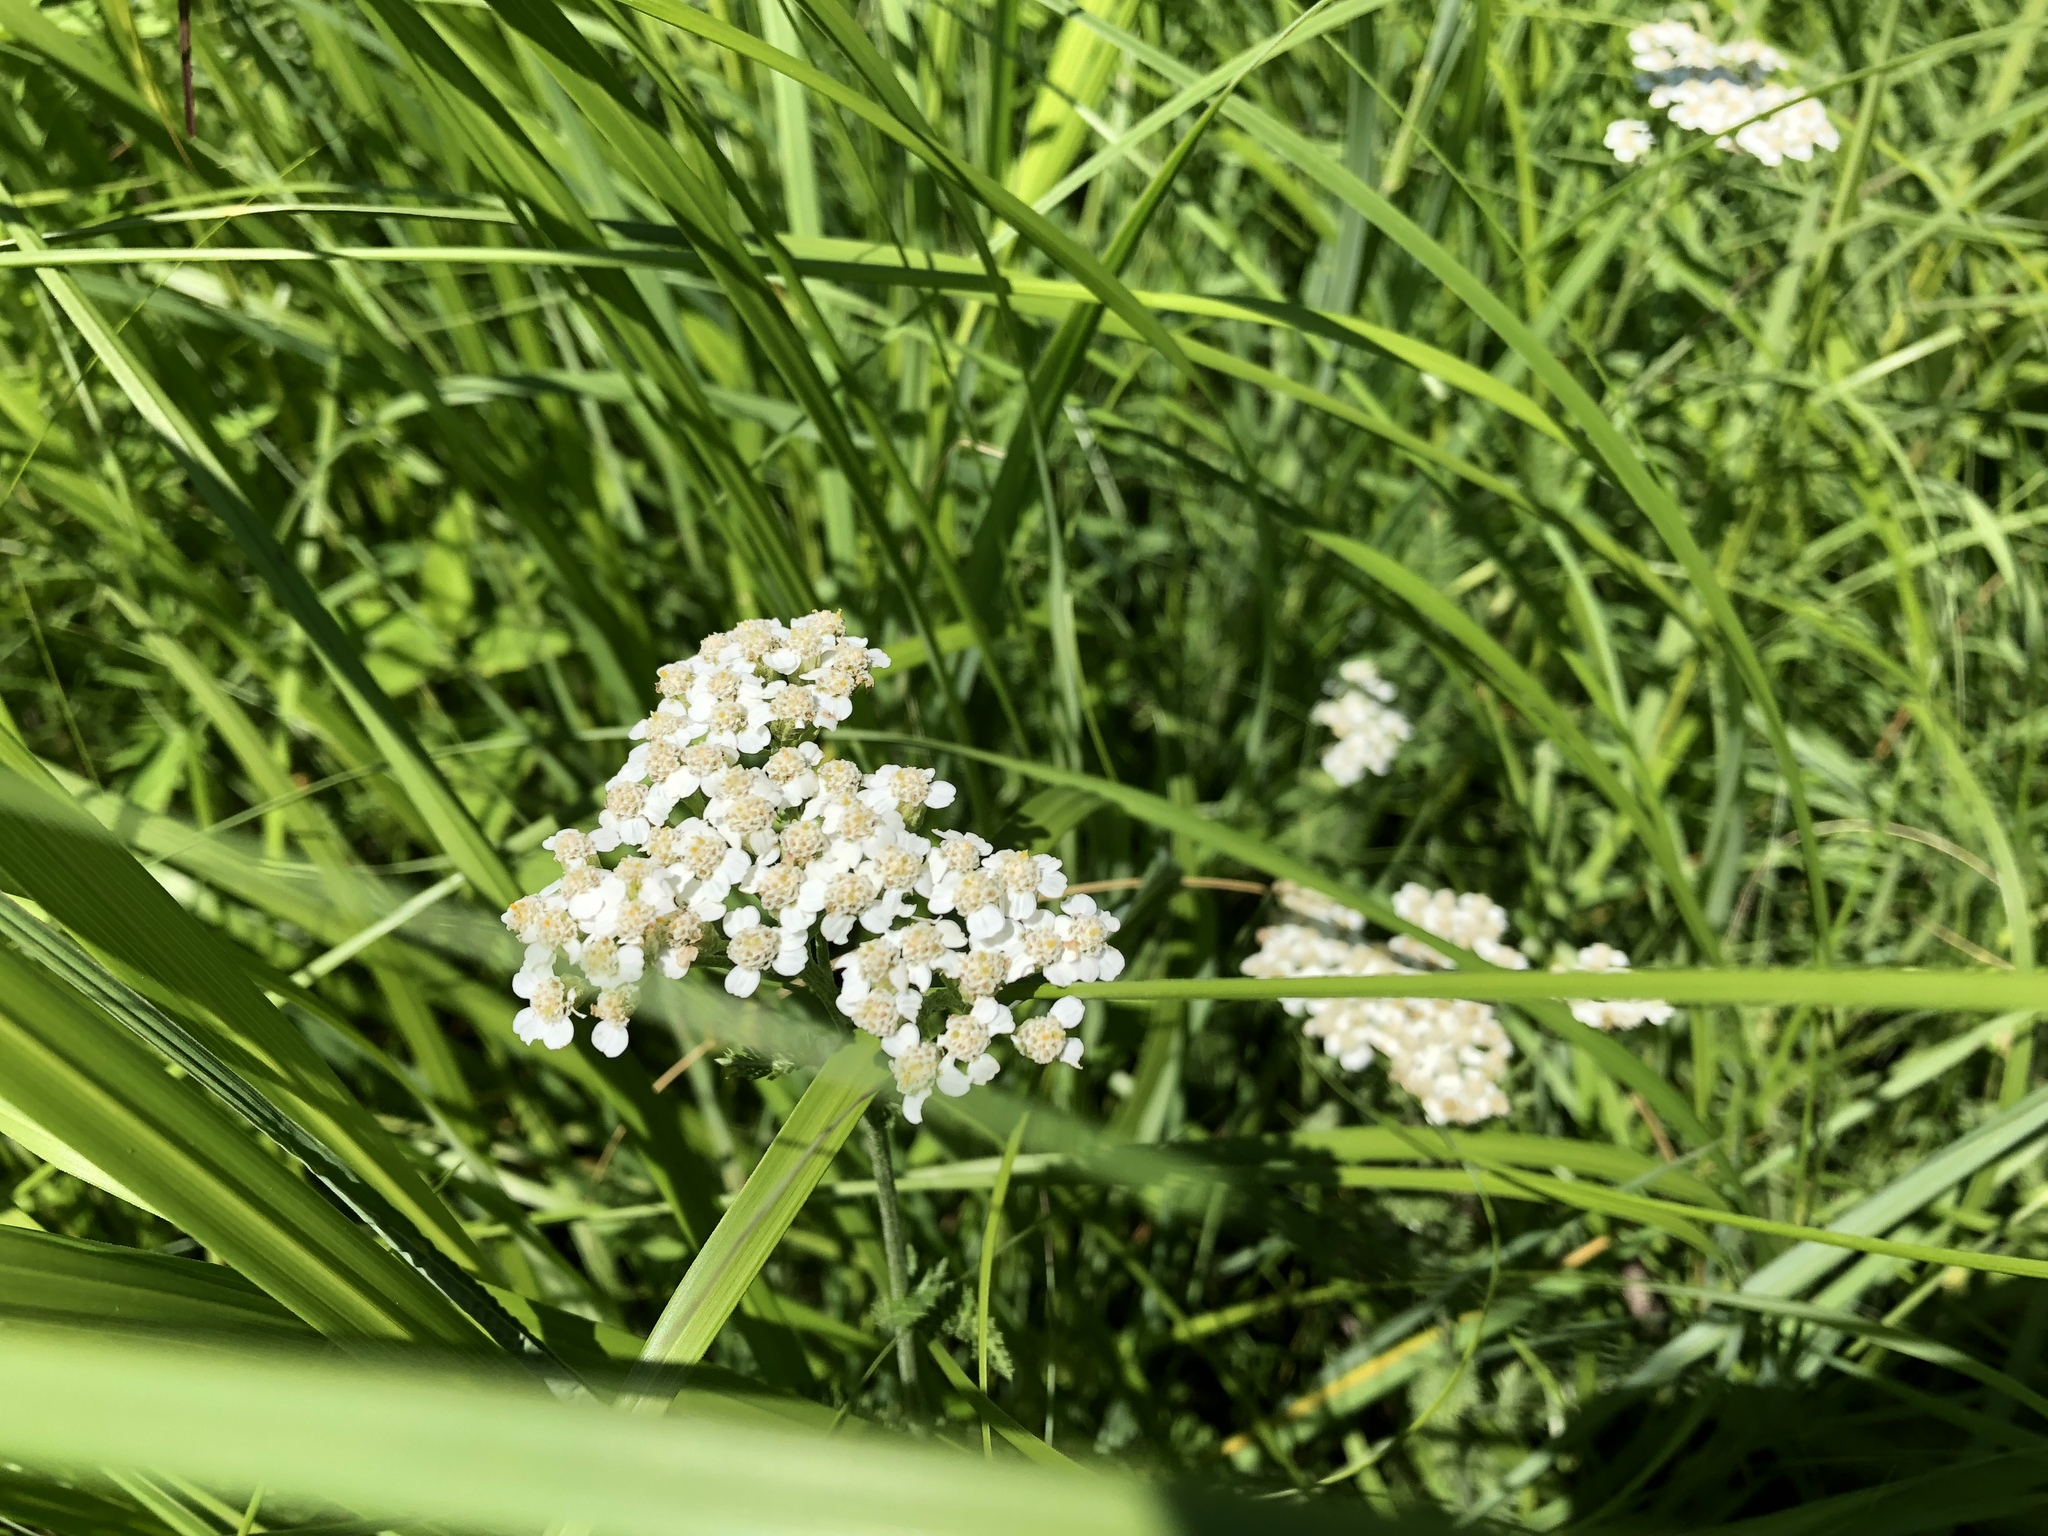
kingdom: Plantae
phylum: Tracheophyta
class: Magnoliopsida
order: Asterales
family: Asteraceae
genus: Achillea
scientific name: Achillea millefolium
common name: Yarrow
